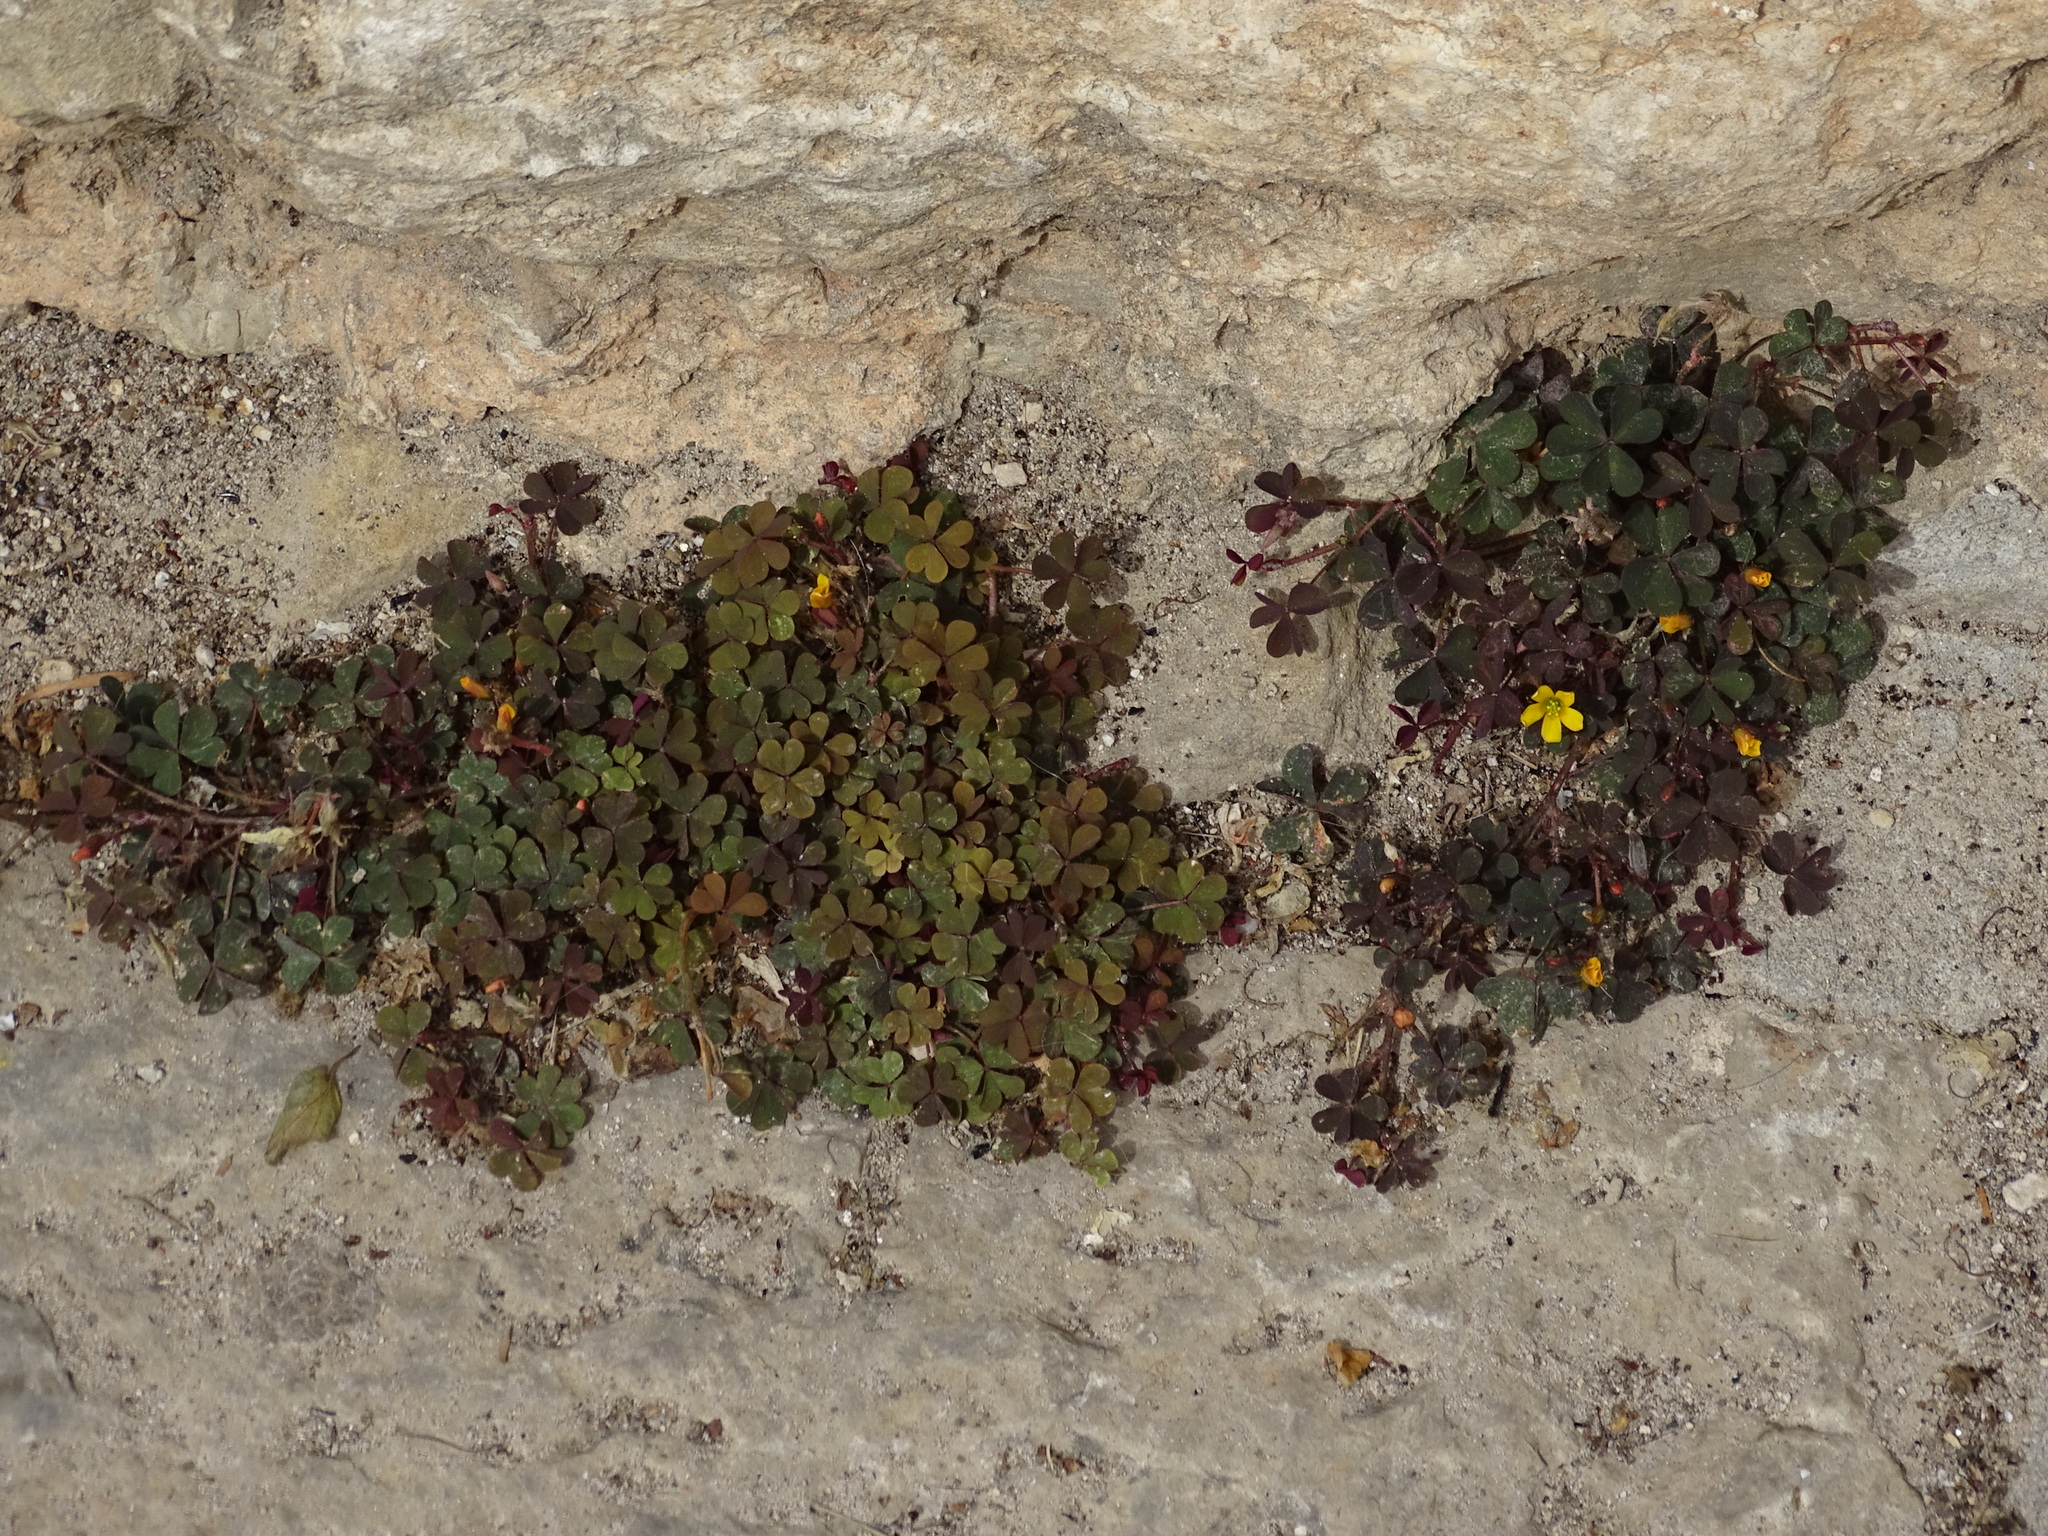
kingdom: Plantae
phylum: Tracheophyta
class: Magnoliopsida
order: Oxalidales
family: Oxalidaceae
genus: Oxalis
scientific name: Oxalis corniculata
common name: Procumbent yellow-sorrel
